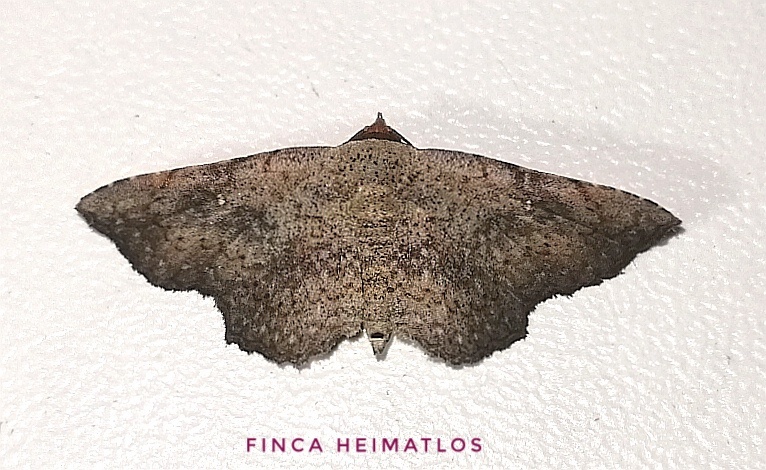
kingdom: Animalia
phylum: Arthropoda
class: Insecta
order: Lepidoptera
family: Erebidae
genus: Renodes
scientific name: Renodes croceiceps
